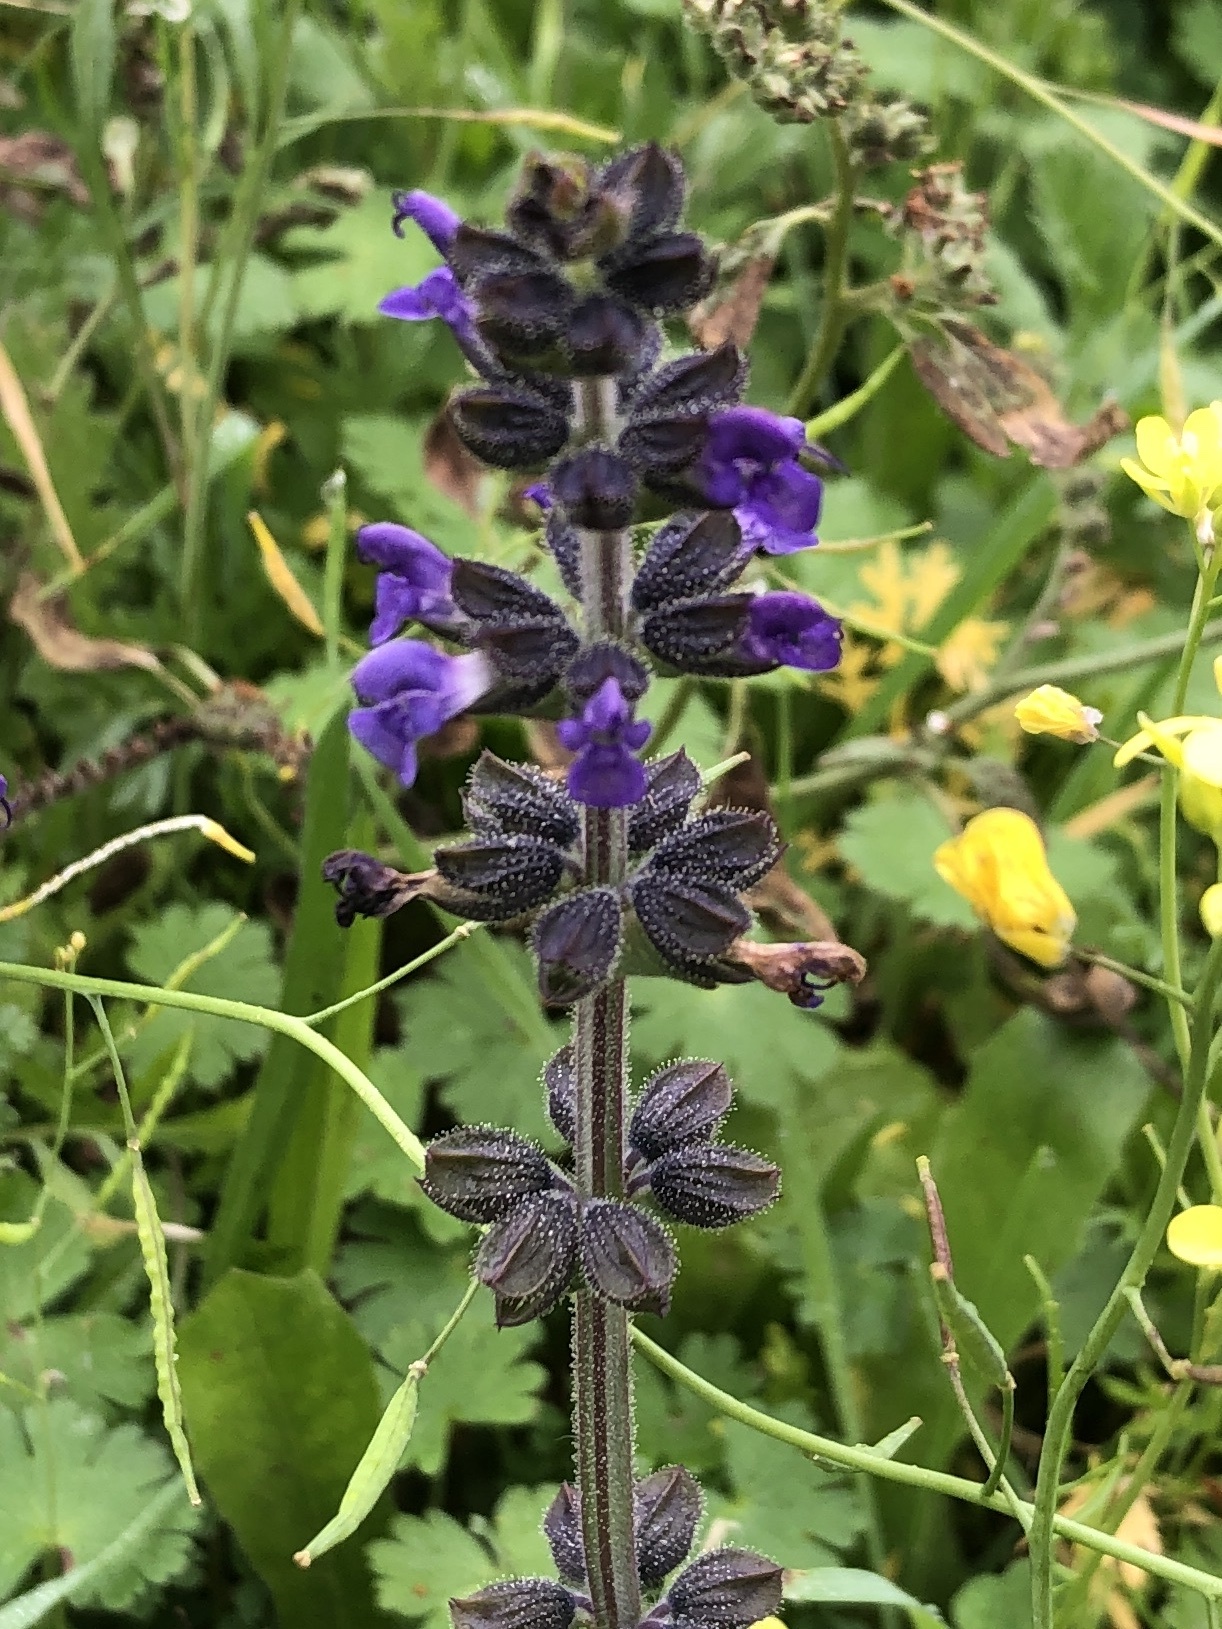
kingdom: Plantae
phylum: Tracheophyta
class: Magnoliopsida
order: Lamiales
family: Lamiaceae
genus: Salvia
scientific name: Salvia verbenaca
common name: Wild clary
